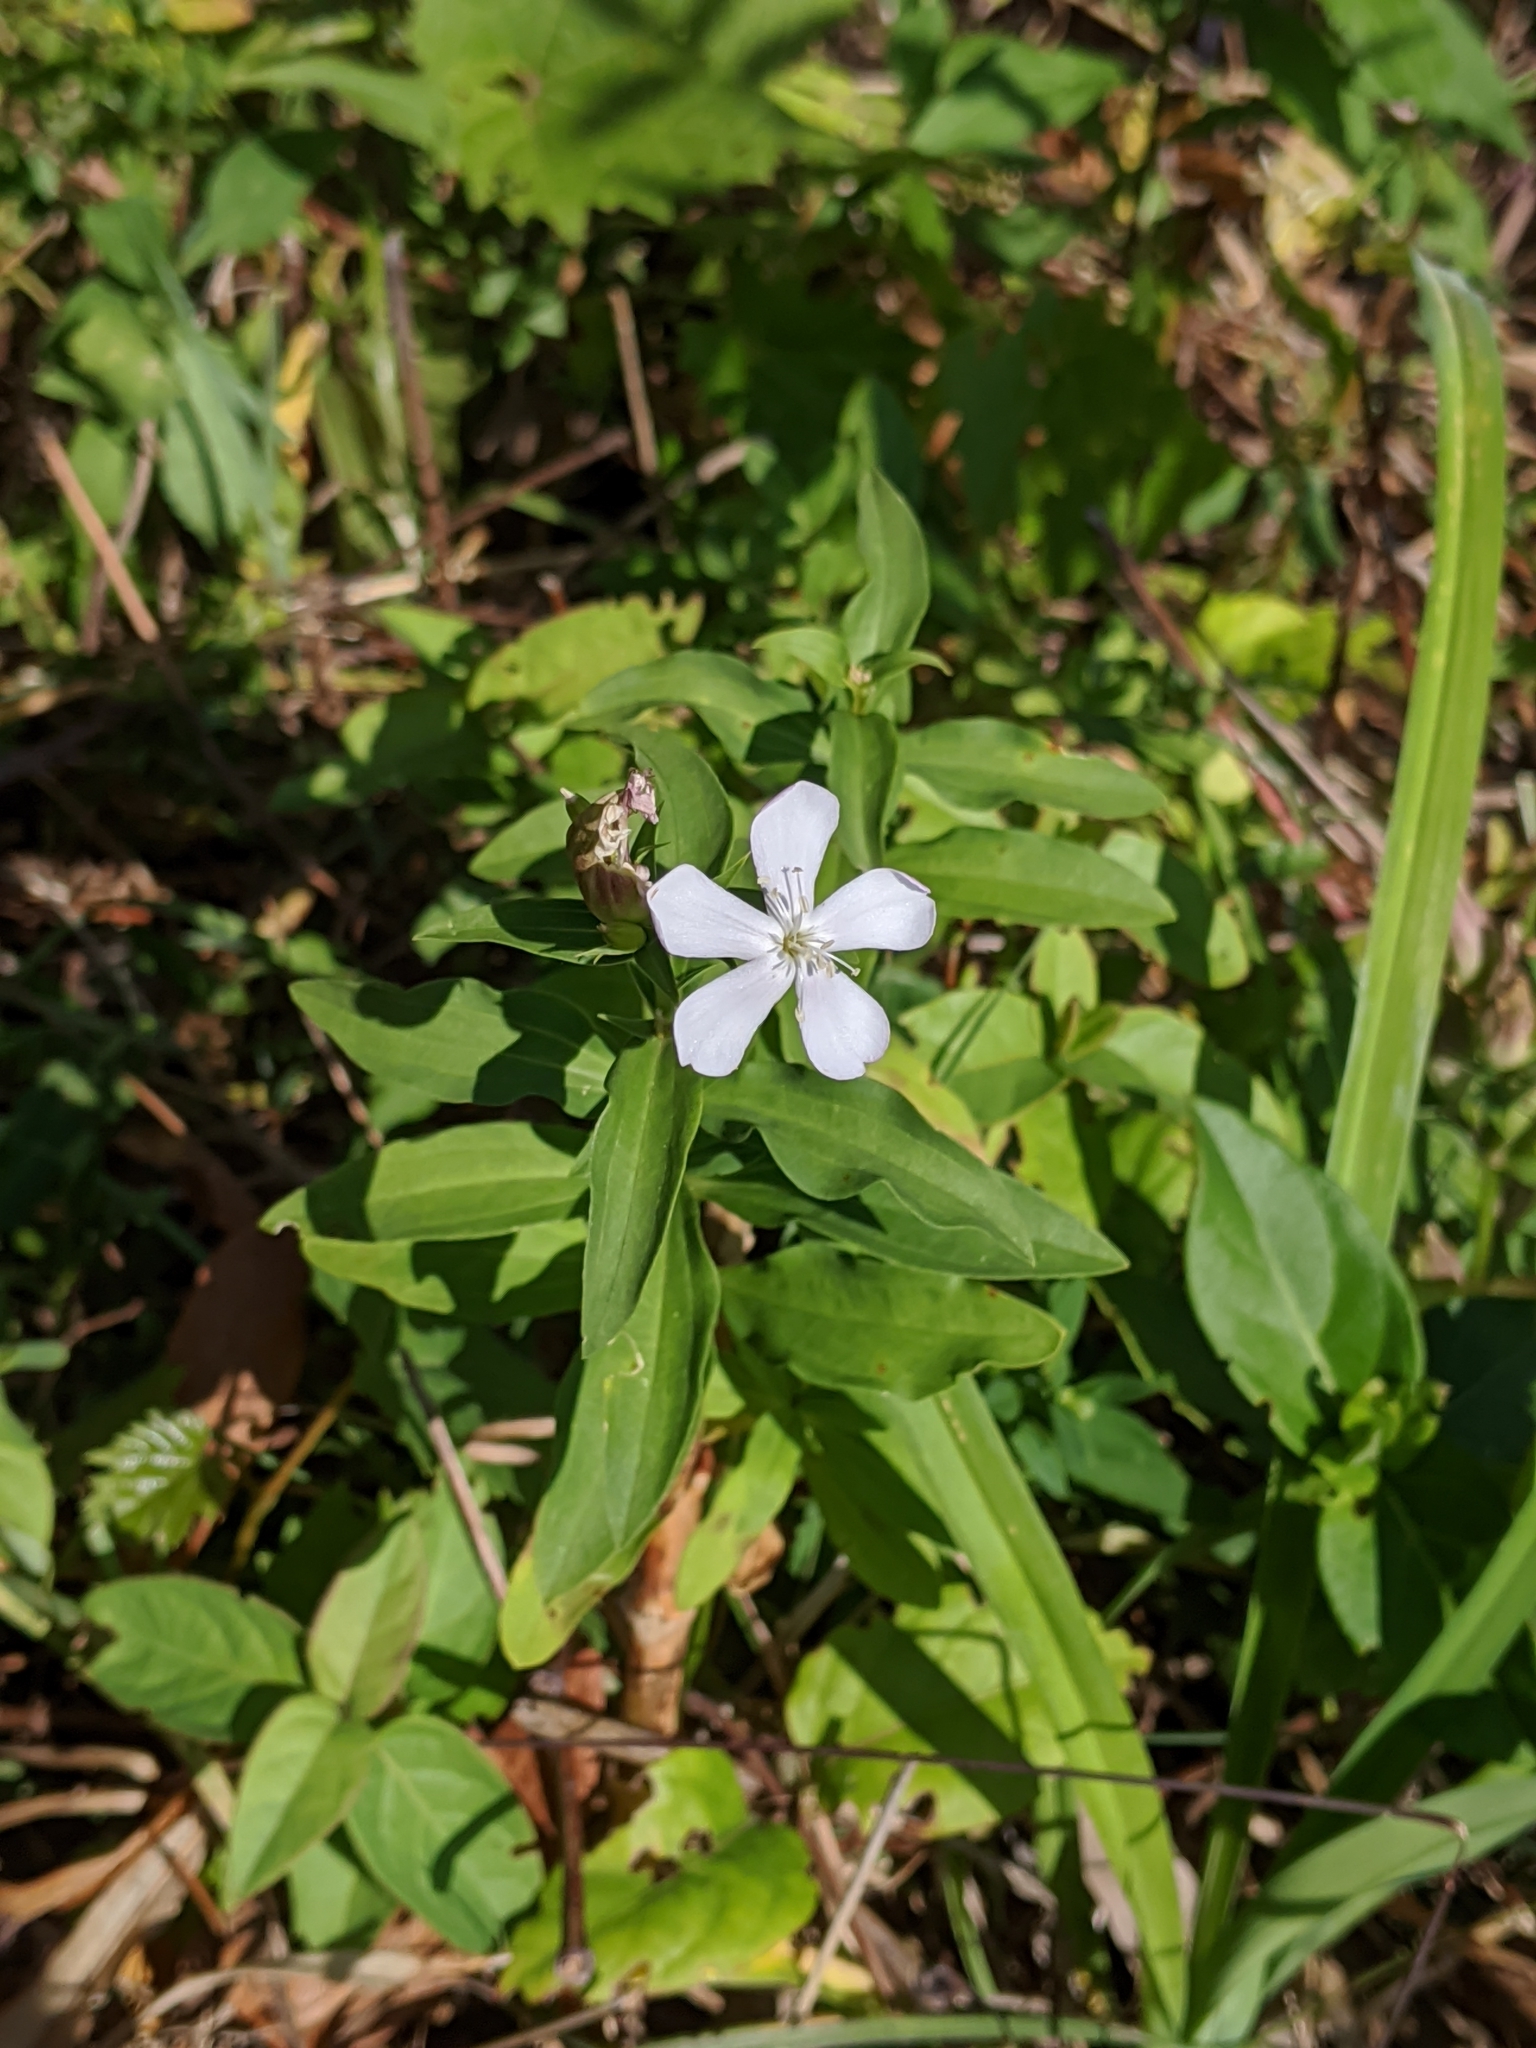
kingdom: Plantae
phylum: Tracheophyta
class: Magnoliopsida
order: Caryophyllales
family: Caryophyllaceae
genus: Saponaria
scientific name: Saponaria officinalis
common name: Soapwort
